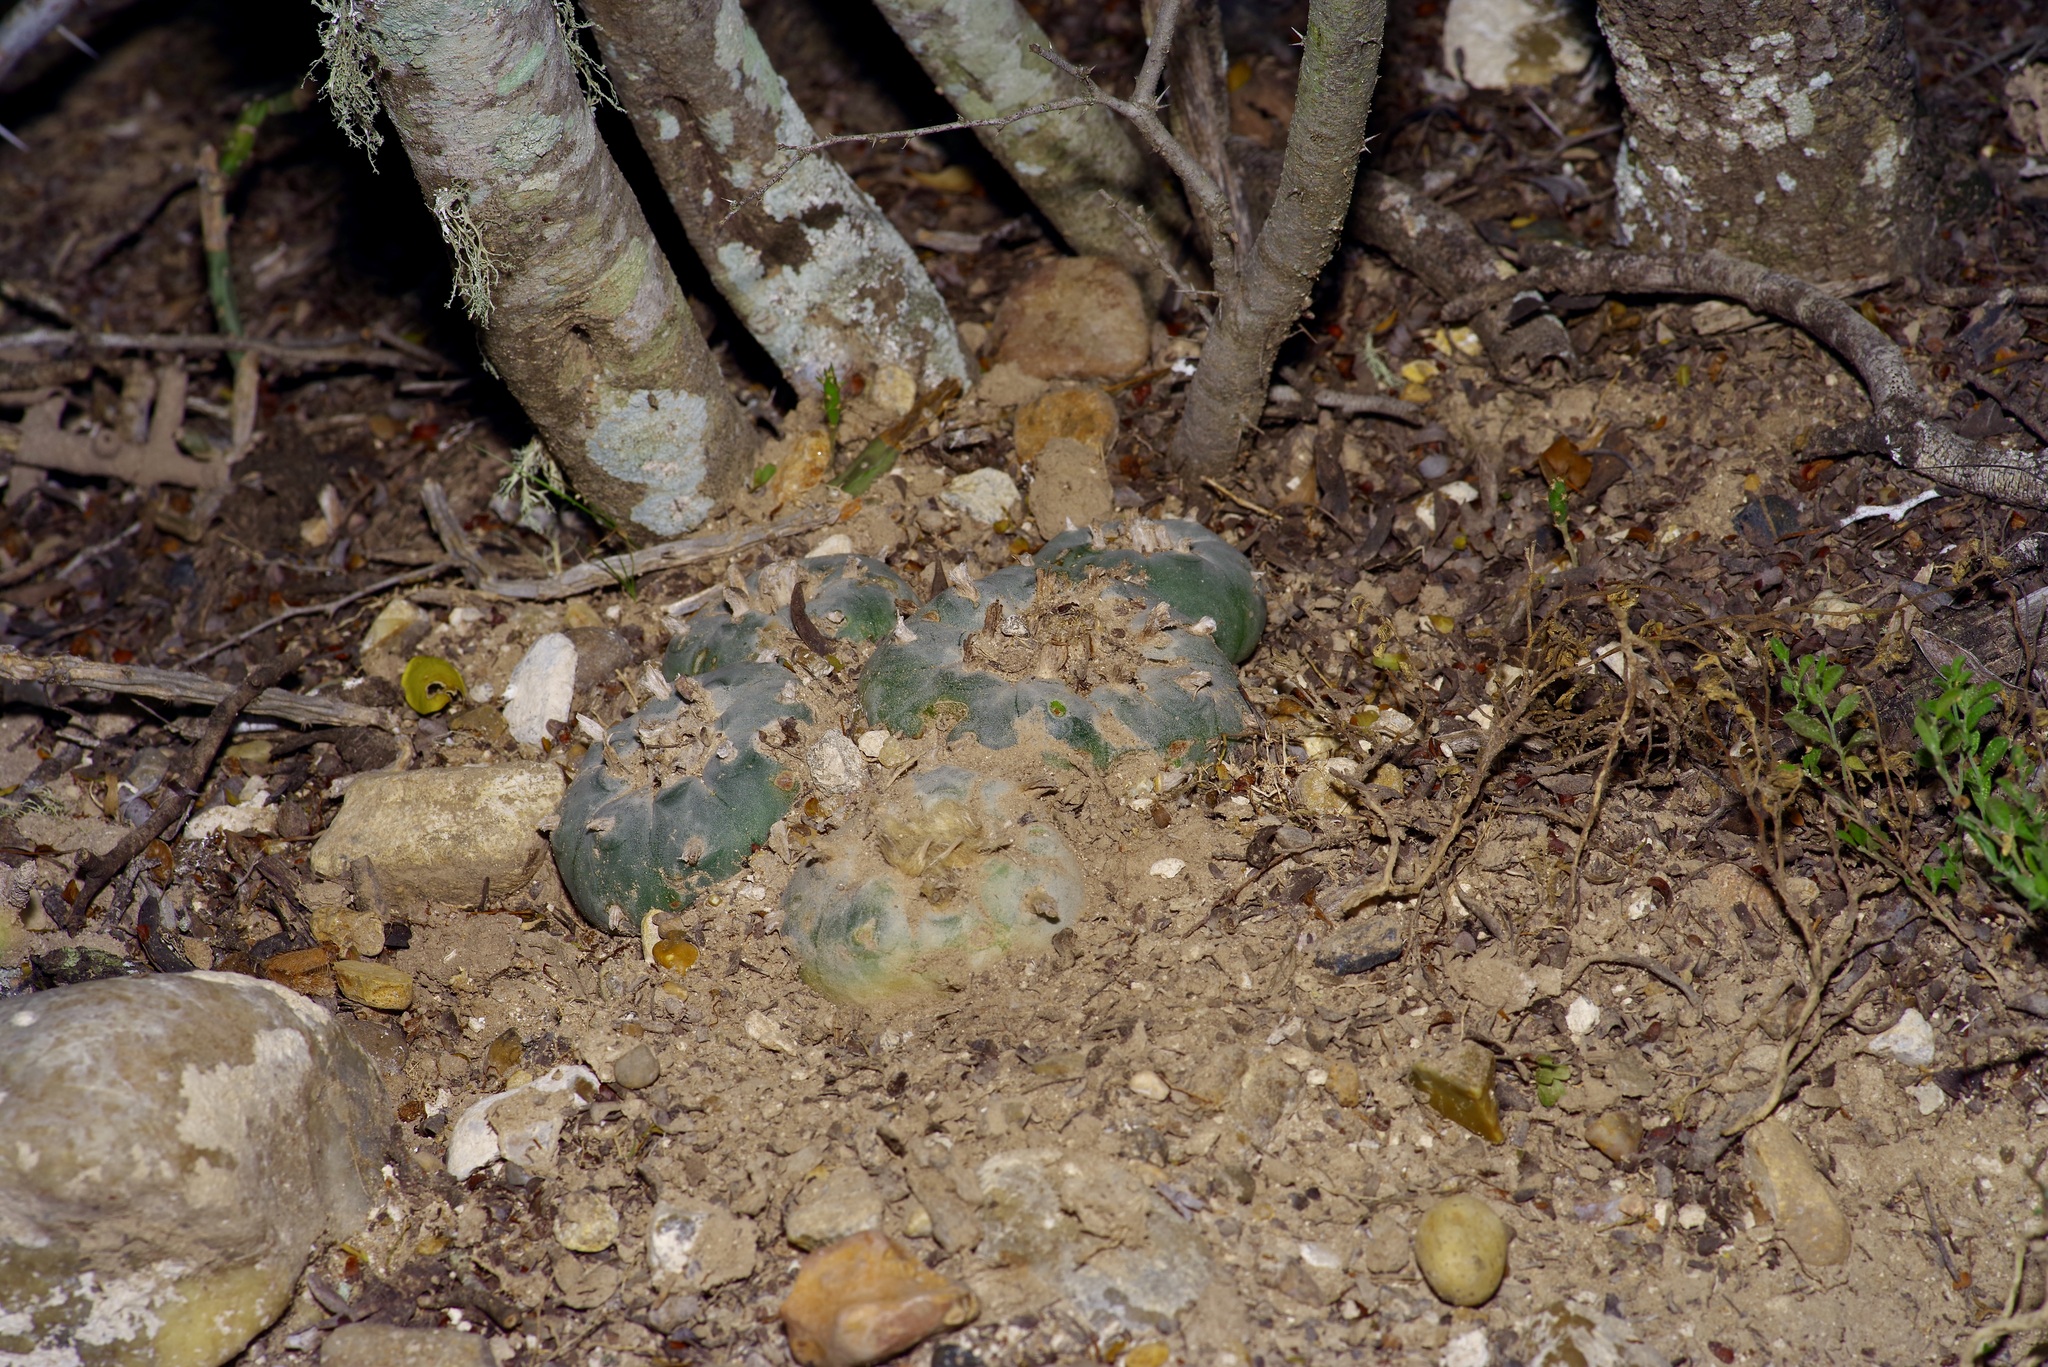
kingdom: Plantae
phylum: Tracheophyta
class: Magnoliopsida
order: Caryophyllales
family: Cactaceae
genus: Lophophora
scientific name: Lophophora williamsii
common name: Indian-dope
